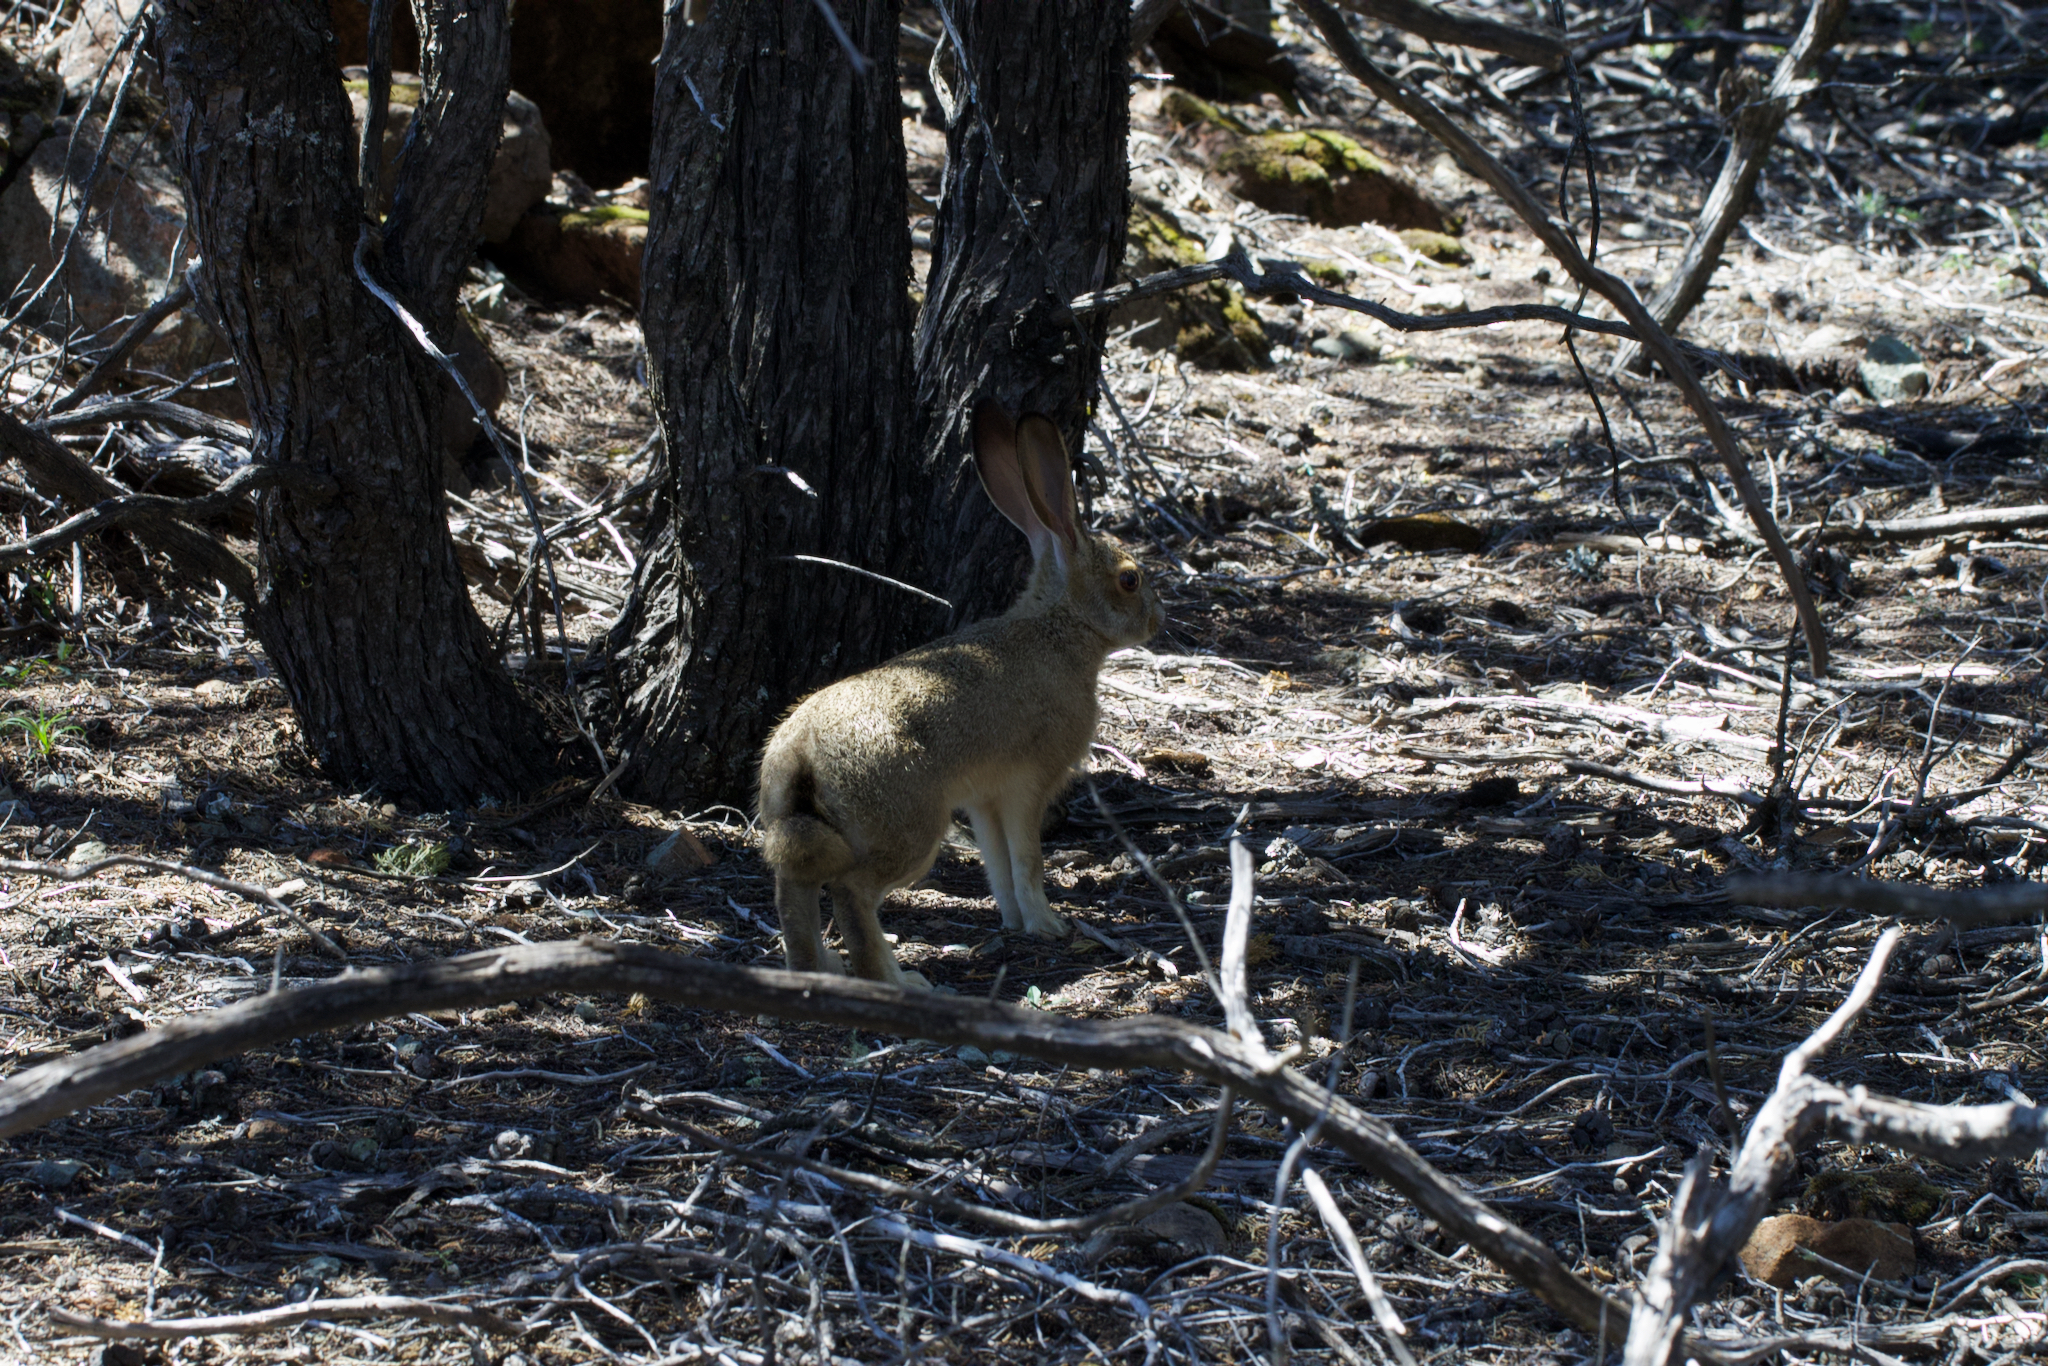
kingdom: Animalia
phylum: Chordata
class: Mammalia
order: Lagomorpha
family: Leporidae
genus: Lepus
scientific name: Lepus californicus
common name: Black-tailed jackrabbit
